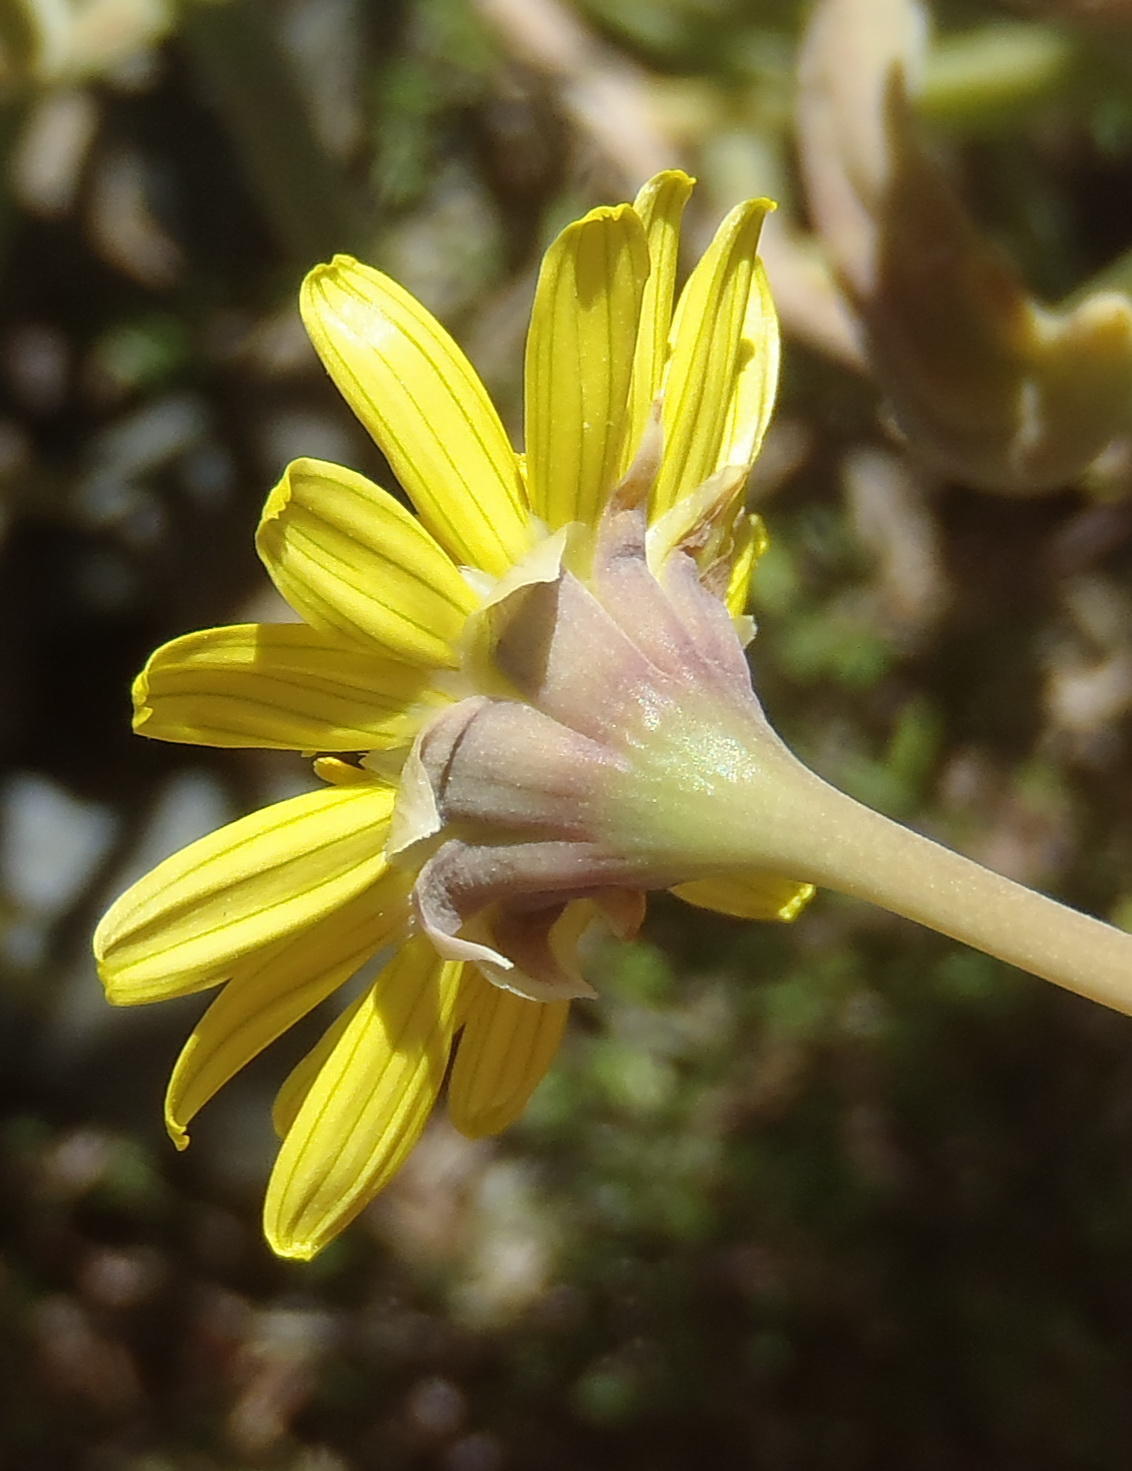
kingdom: Plantae
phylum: Tracheophyta
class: Magnoliopsida
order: Asterales
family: Asteraceae
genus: Crassothonna
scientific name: Crassothonna cacalioides
